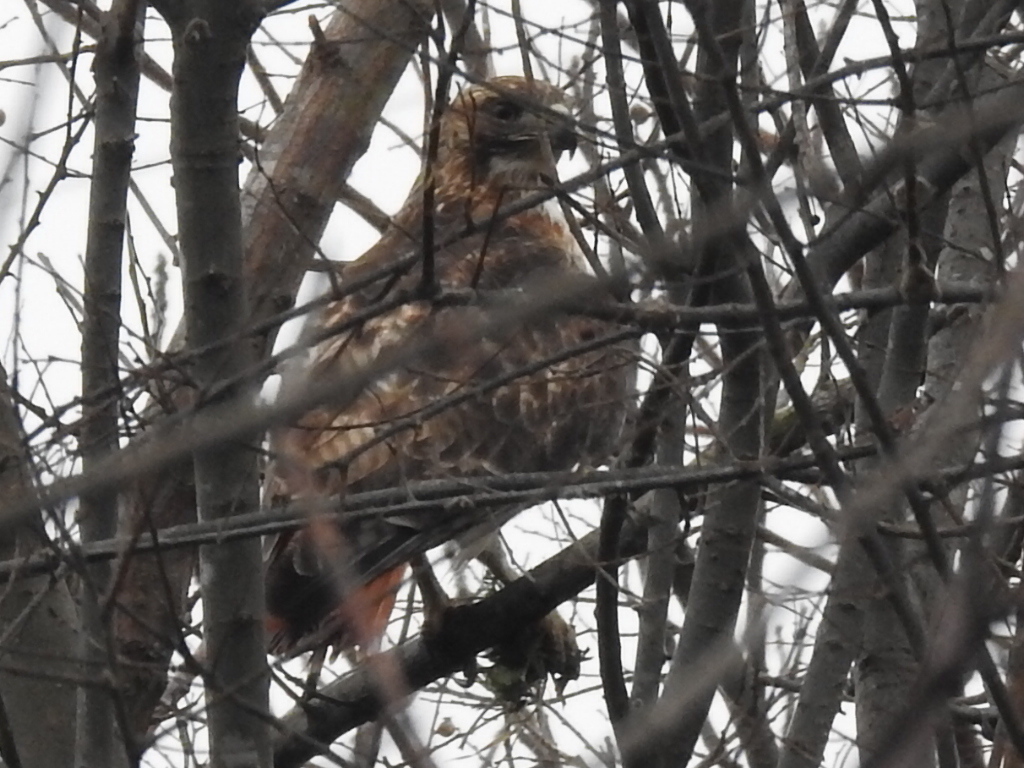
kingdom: Animalia
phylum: Chordata
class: Aves
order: Accipitriformes
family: Accipitridae
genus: Buteo
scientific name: Buteo jamaicensis
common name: Red-tailed hawk
